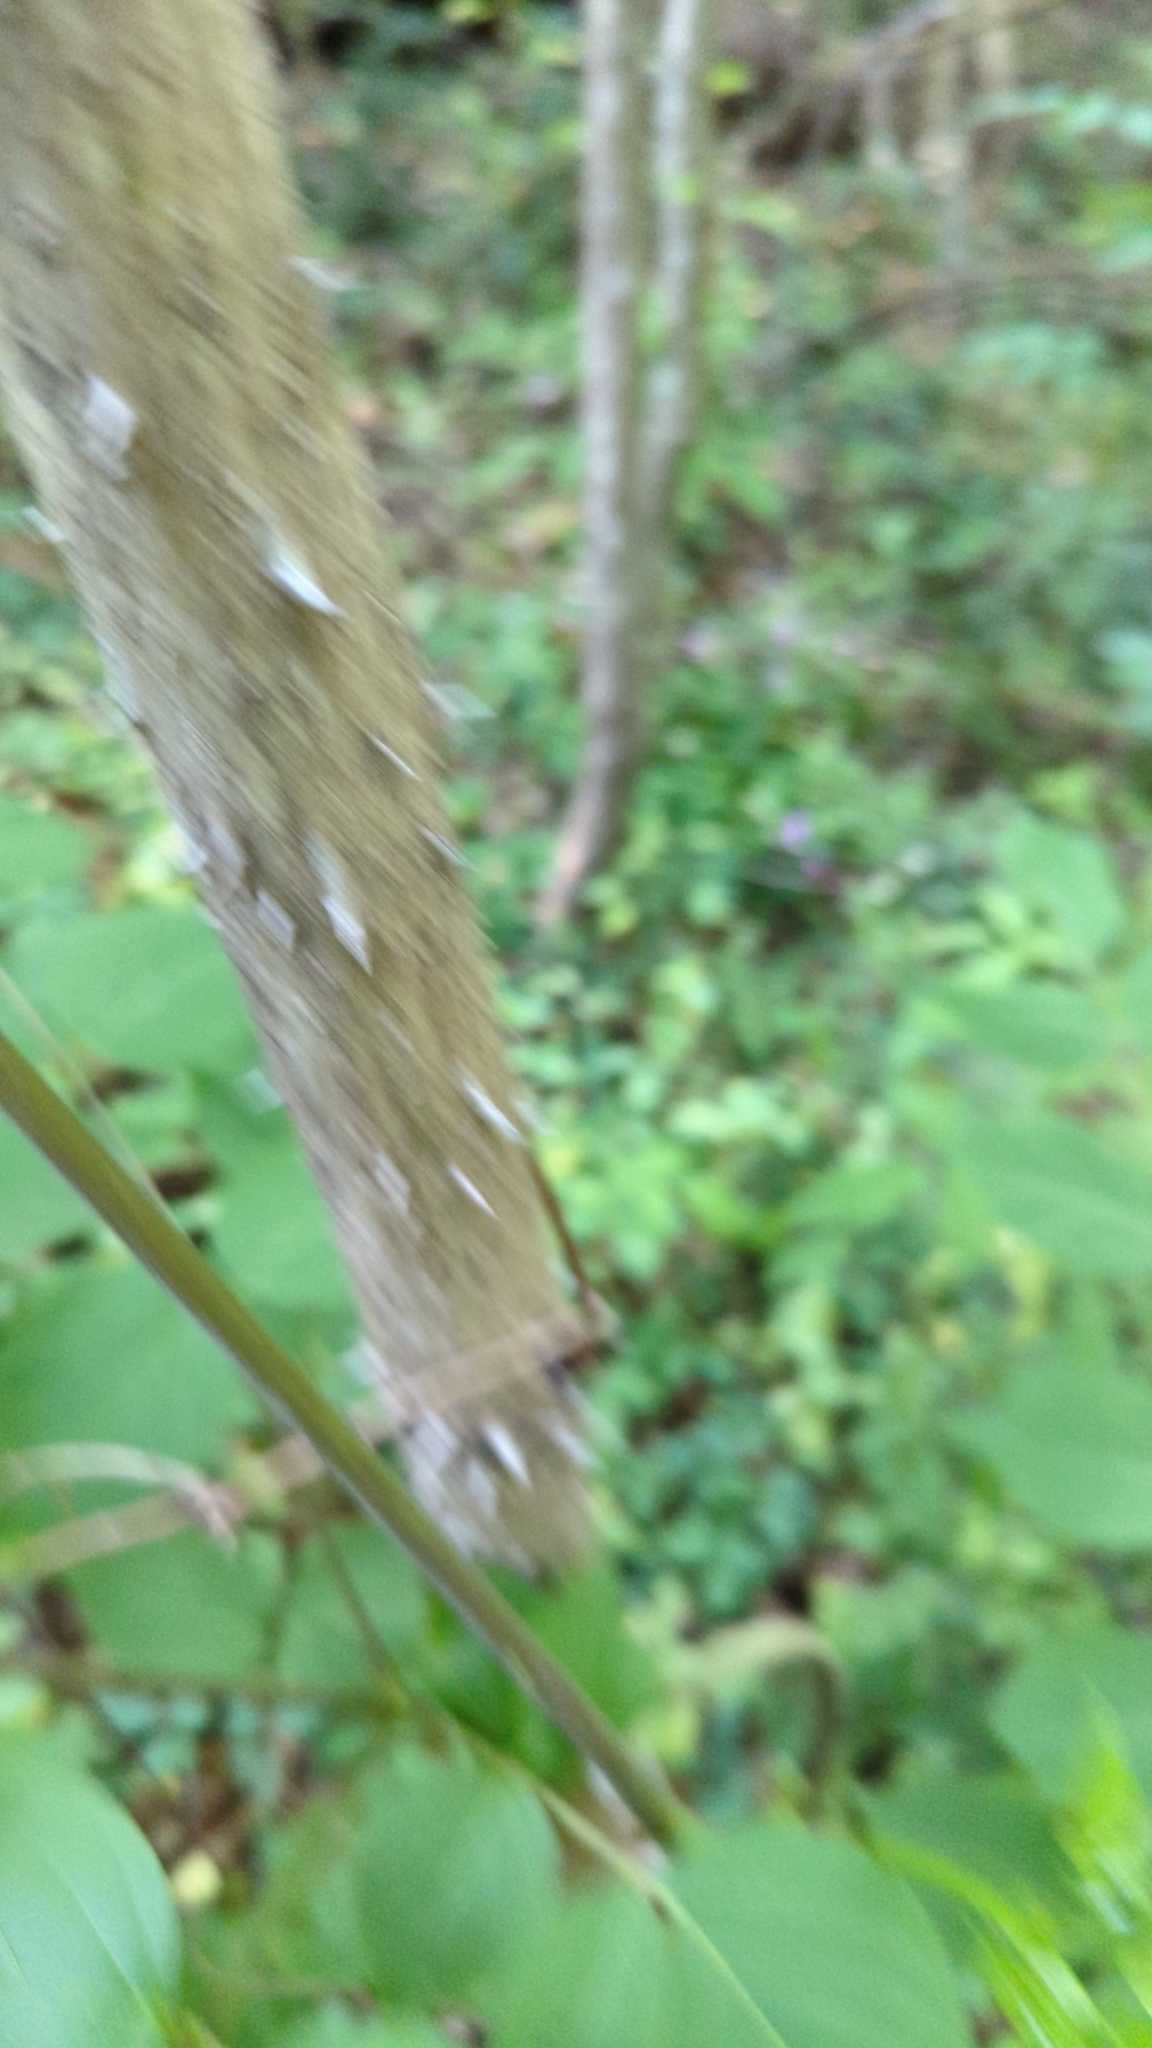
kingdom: Plantae
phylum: Tracheophyta
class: Magnoliopsida
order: Apiales
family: Araliaceae
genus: Aralia
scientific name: Aralia spinosa
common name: Hercules'-club
